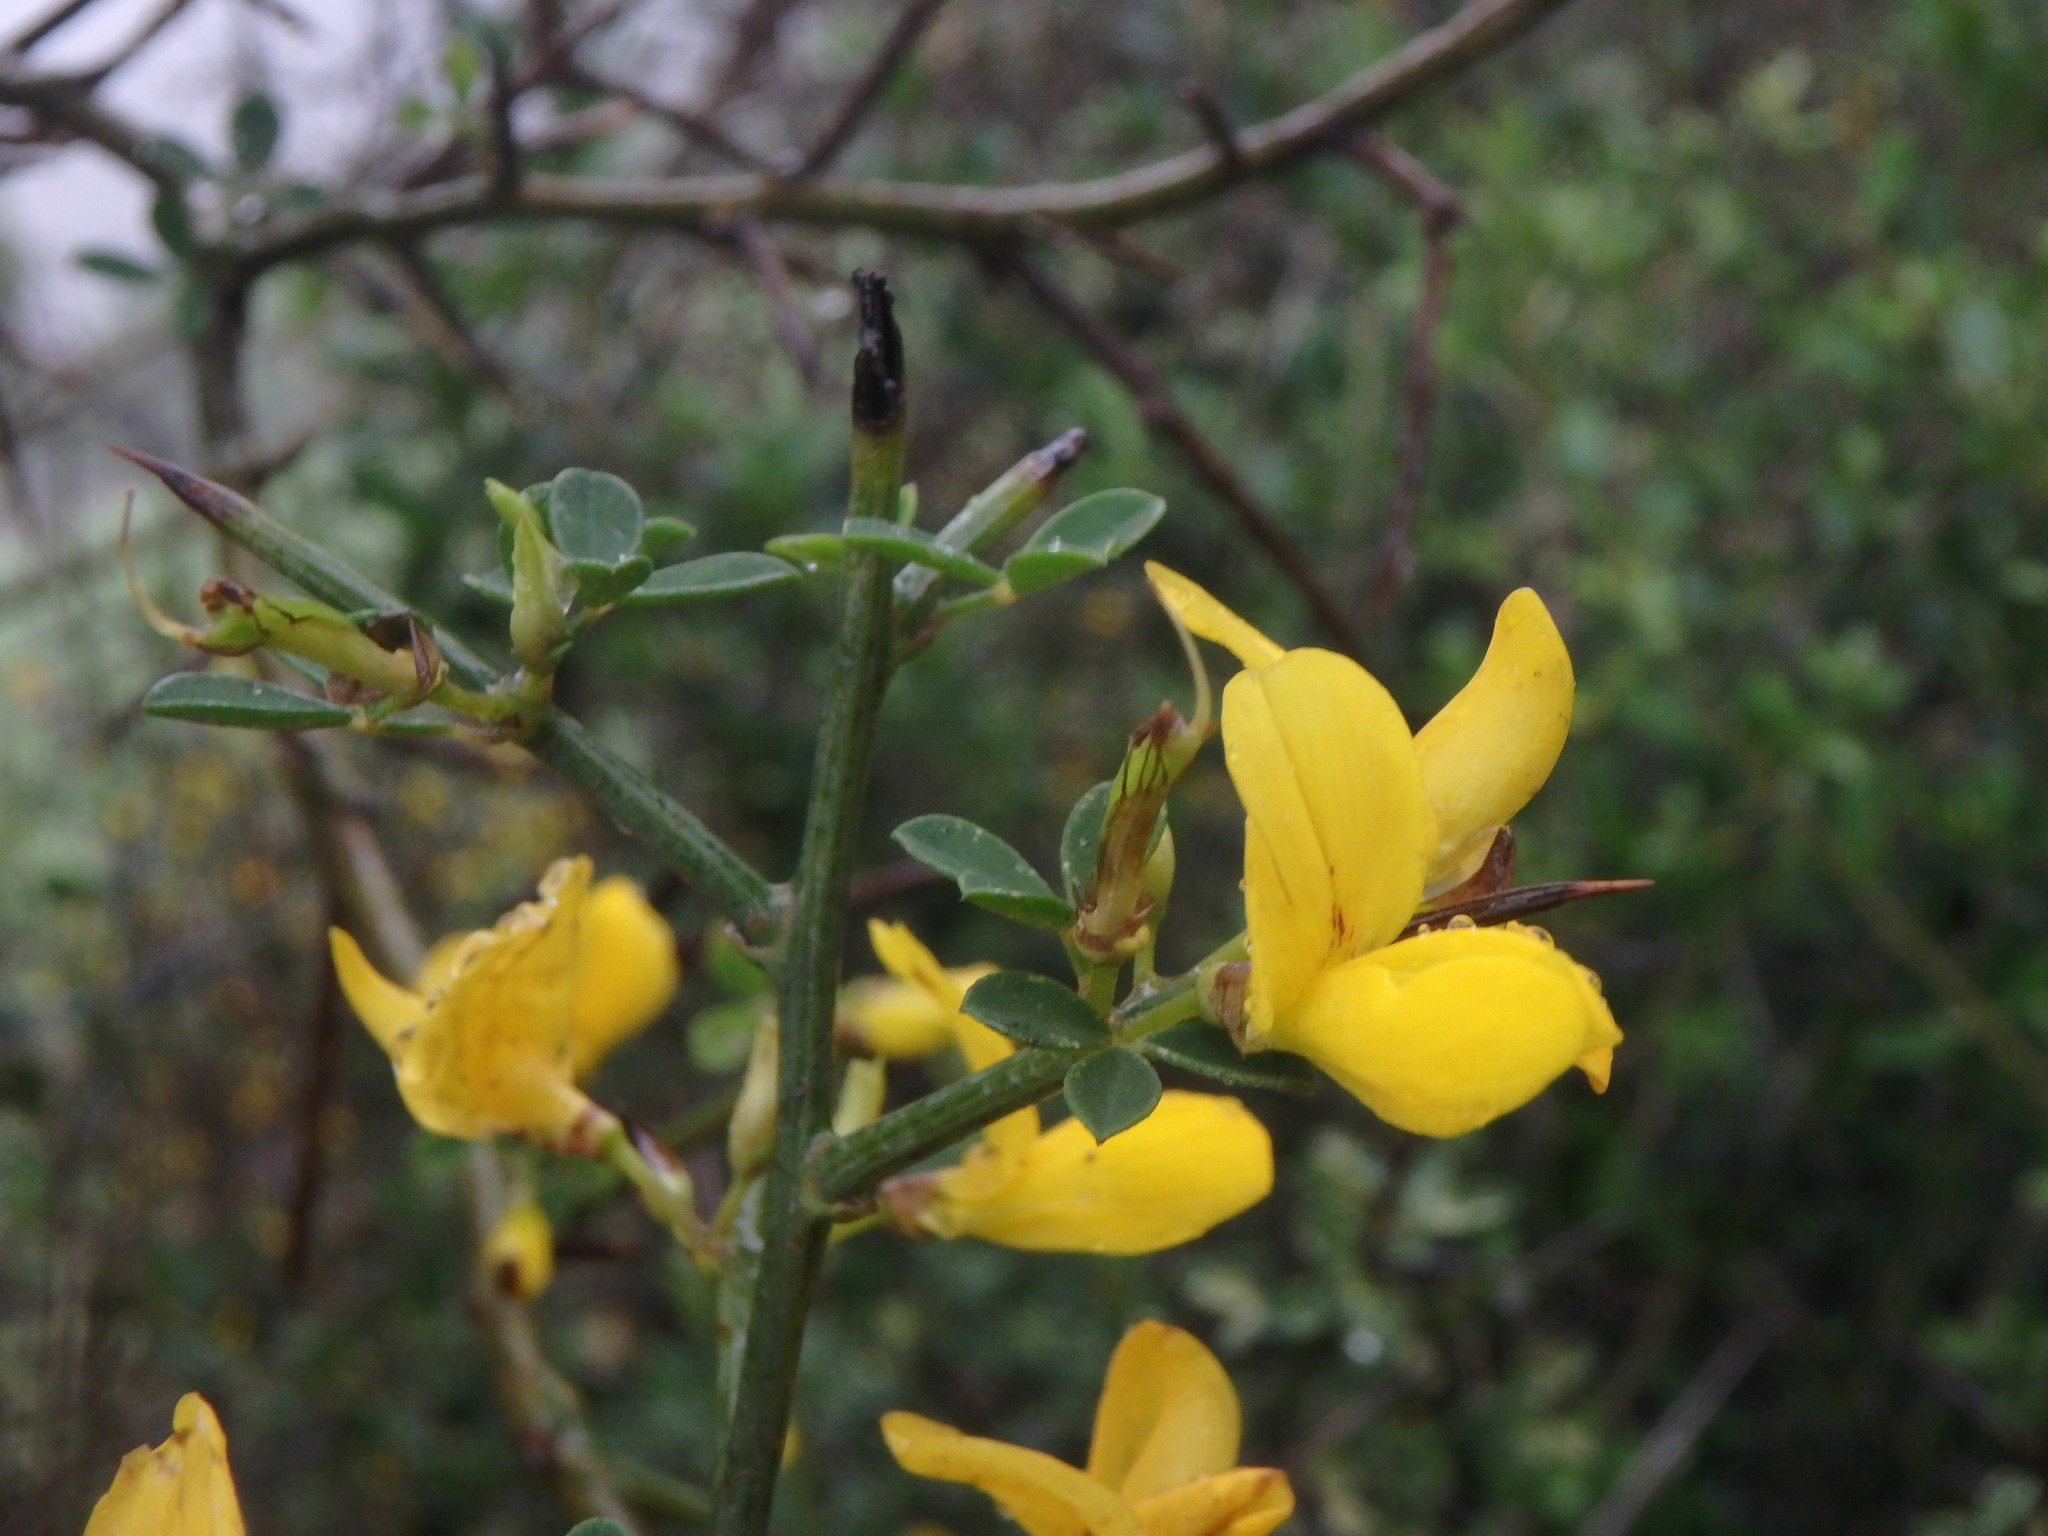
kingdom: Plantae
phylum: Tracheophyta
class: Magnoliopsida
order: Fabales
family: Fabaceae
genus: Calicotome
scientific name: Calicotome spinosa
